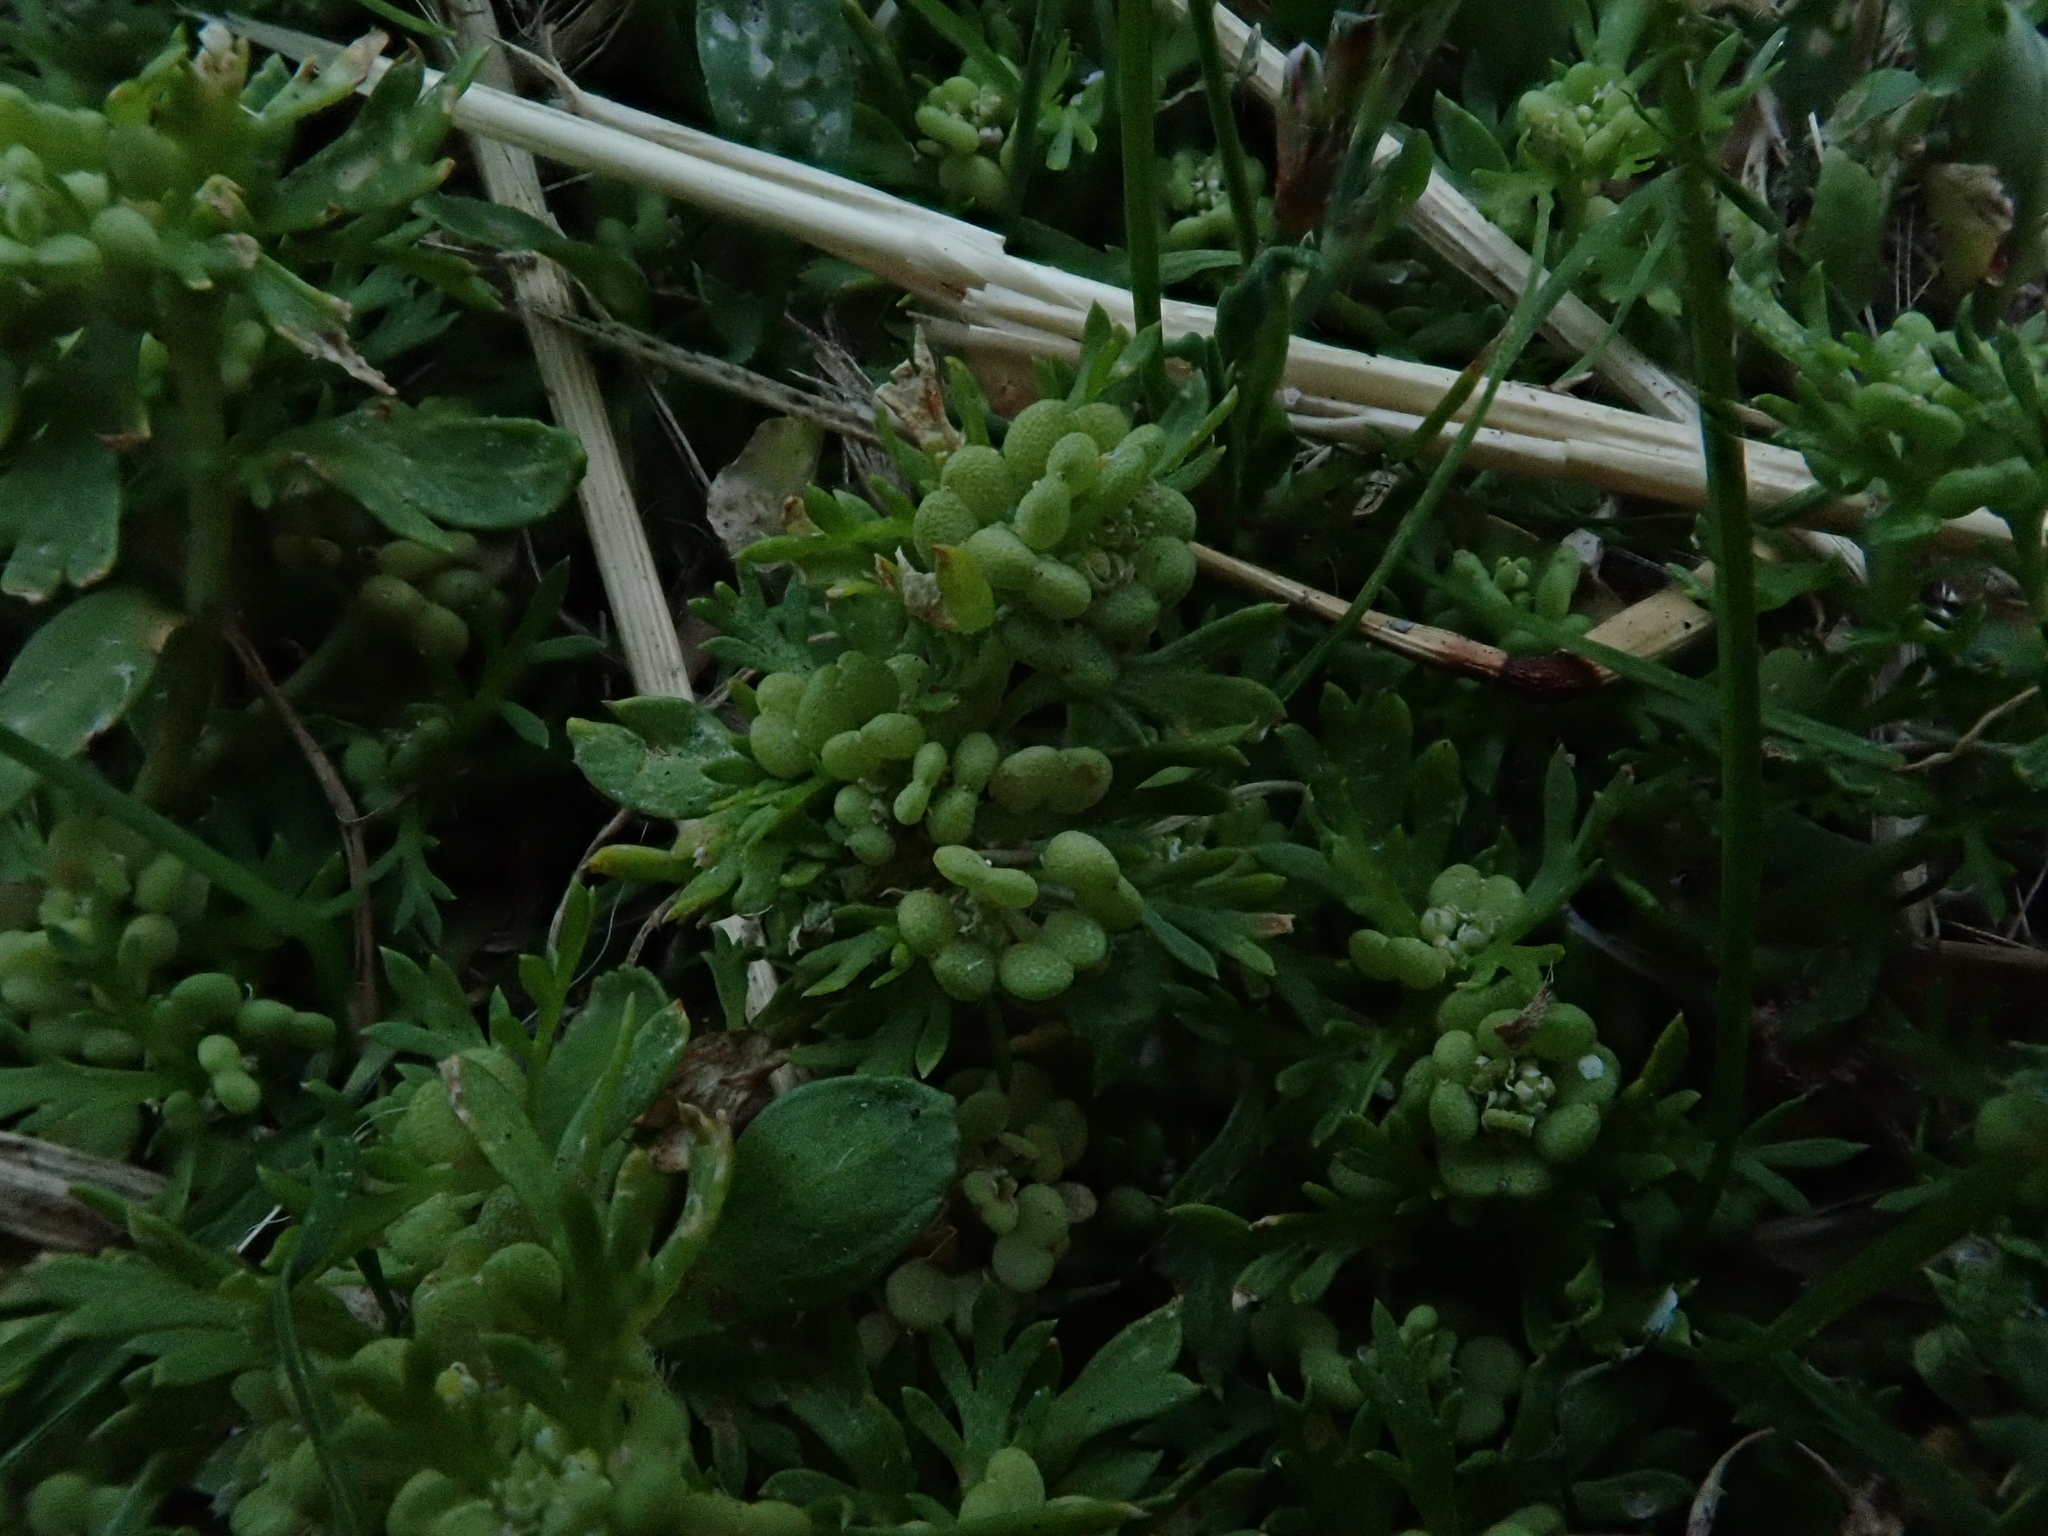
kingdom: Plantae
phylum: Tracheophyta
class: Magnoliopsida
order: Brassicales
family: Brassicaceae
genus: Lepidium
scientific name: Lepidium didymum
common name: Lesser swinecress
